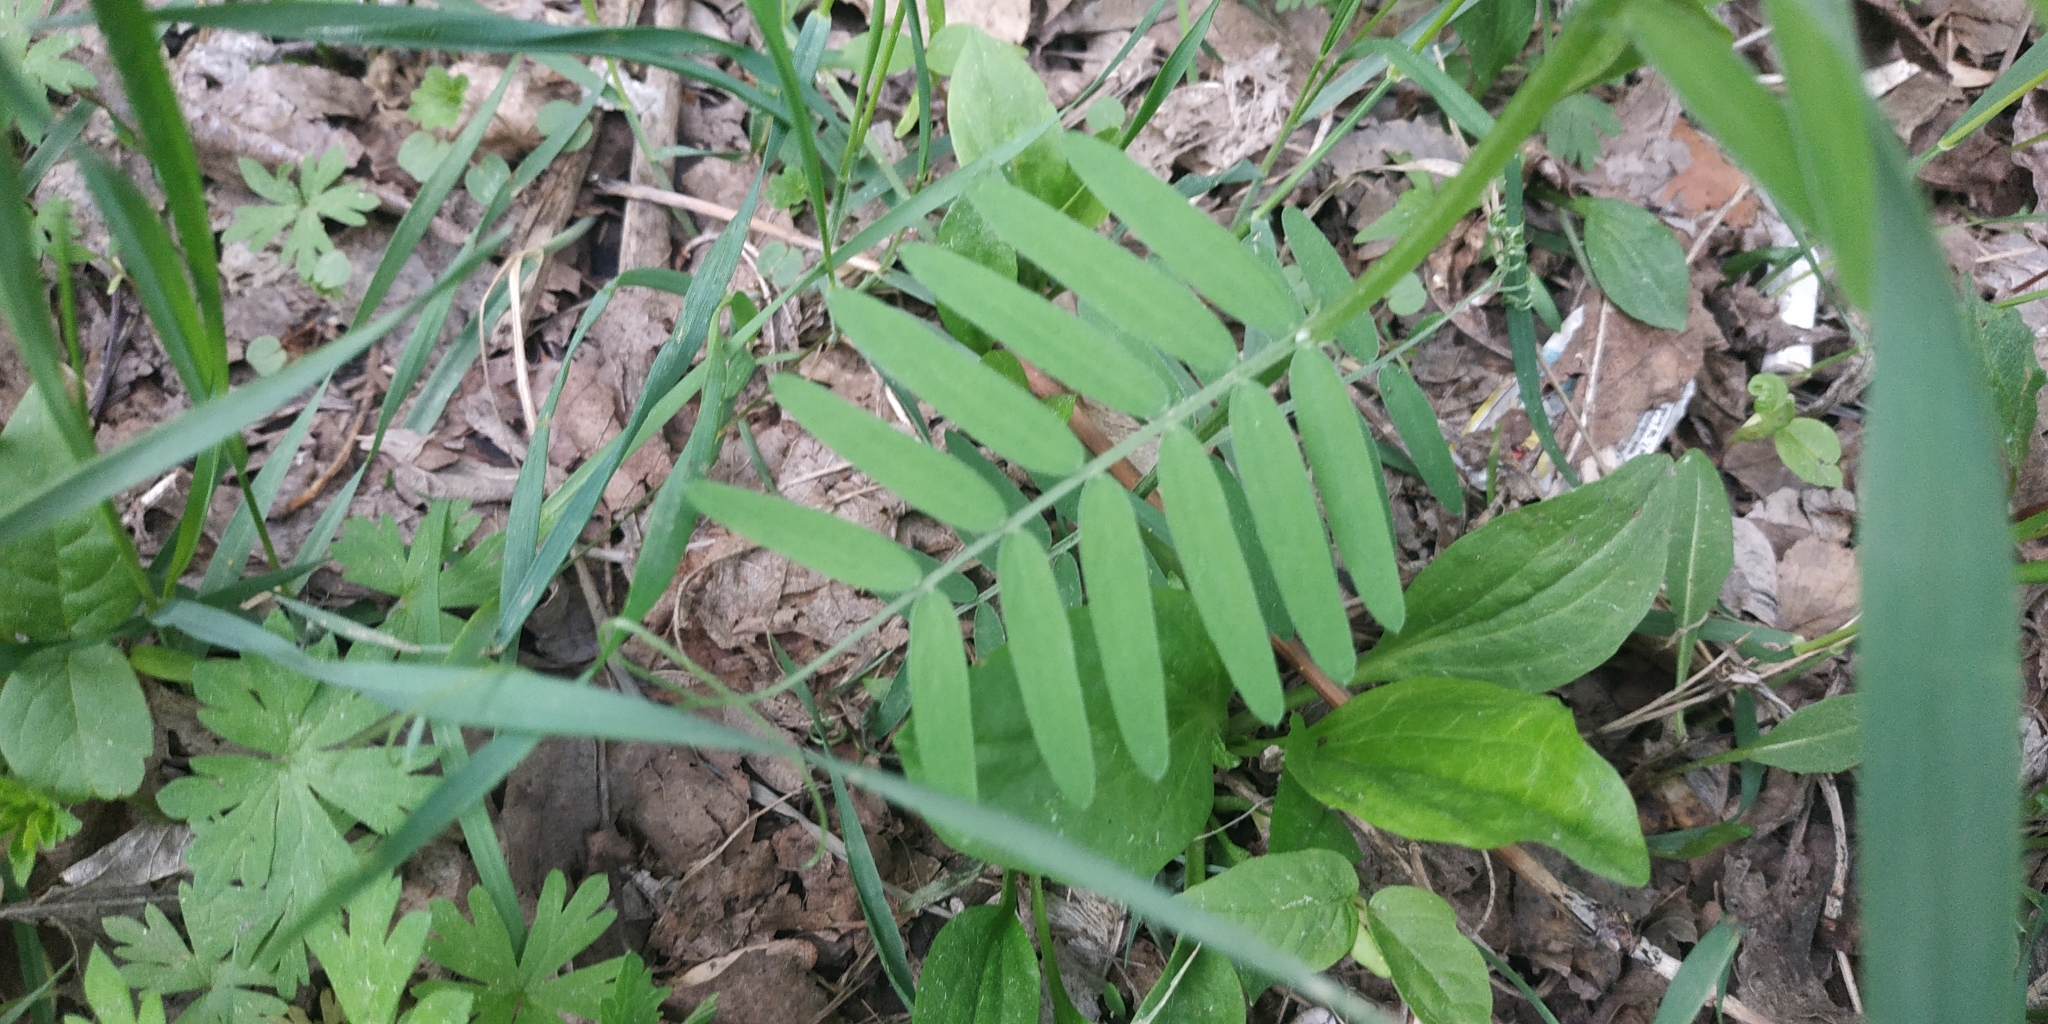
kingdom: Plantae
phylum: Tracheophyta
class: Magnoliopsida
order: Fabales
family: Fabaceae
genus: Vicia
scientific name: Vicia cracca
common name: Bird vetch
